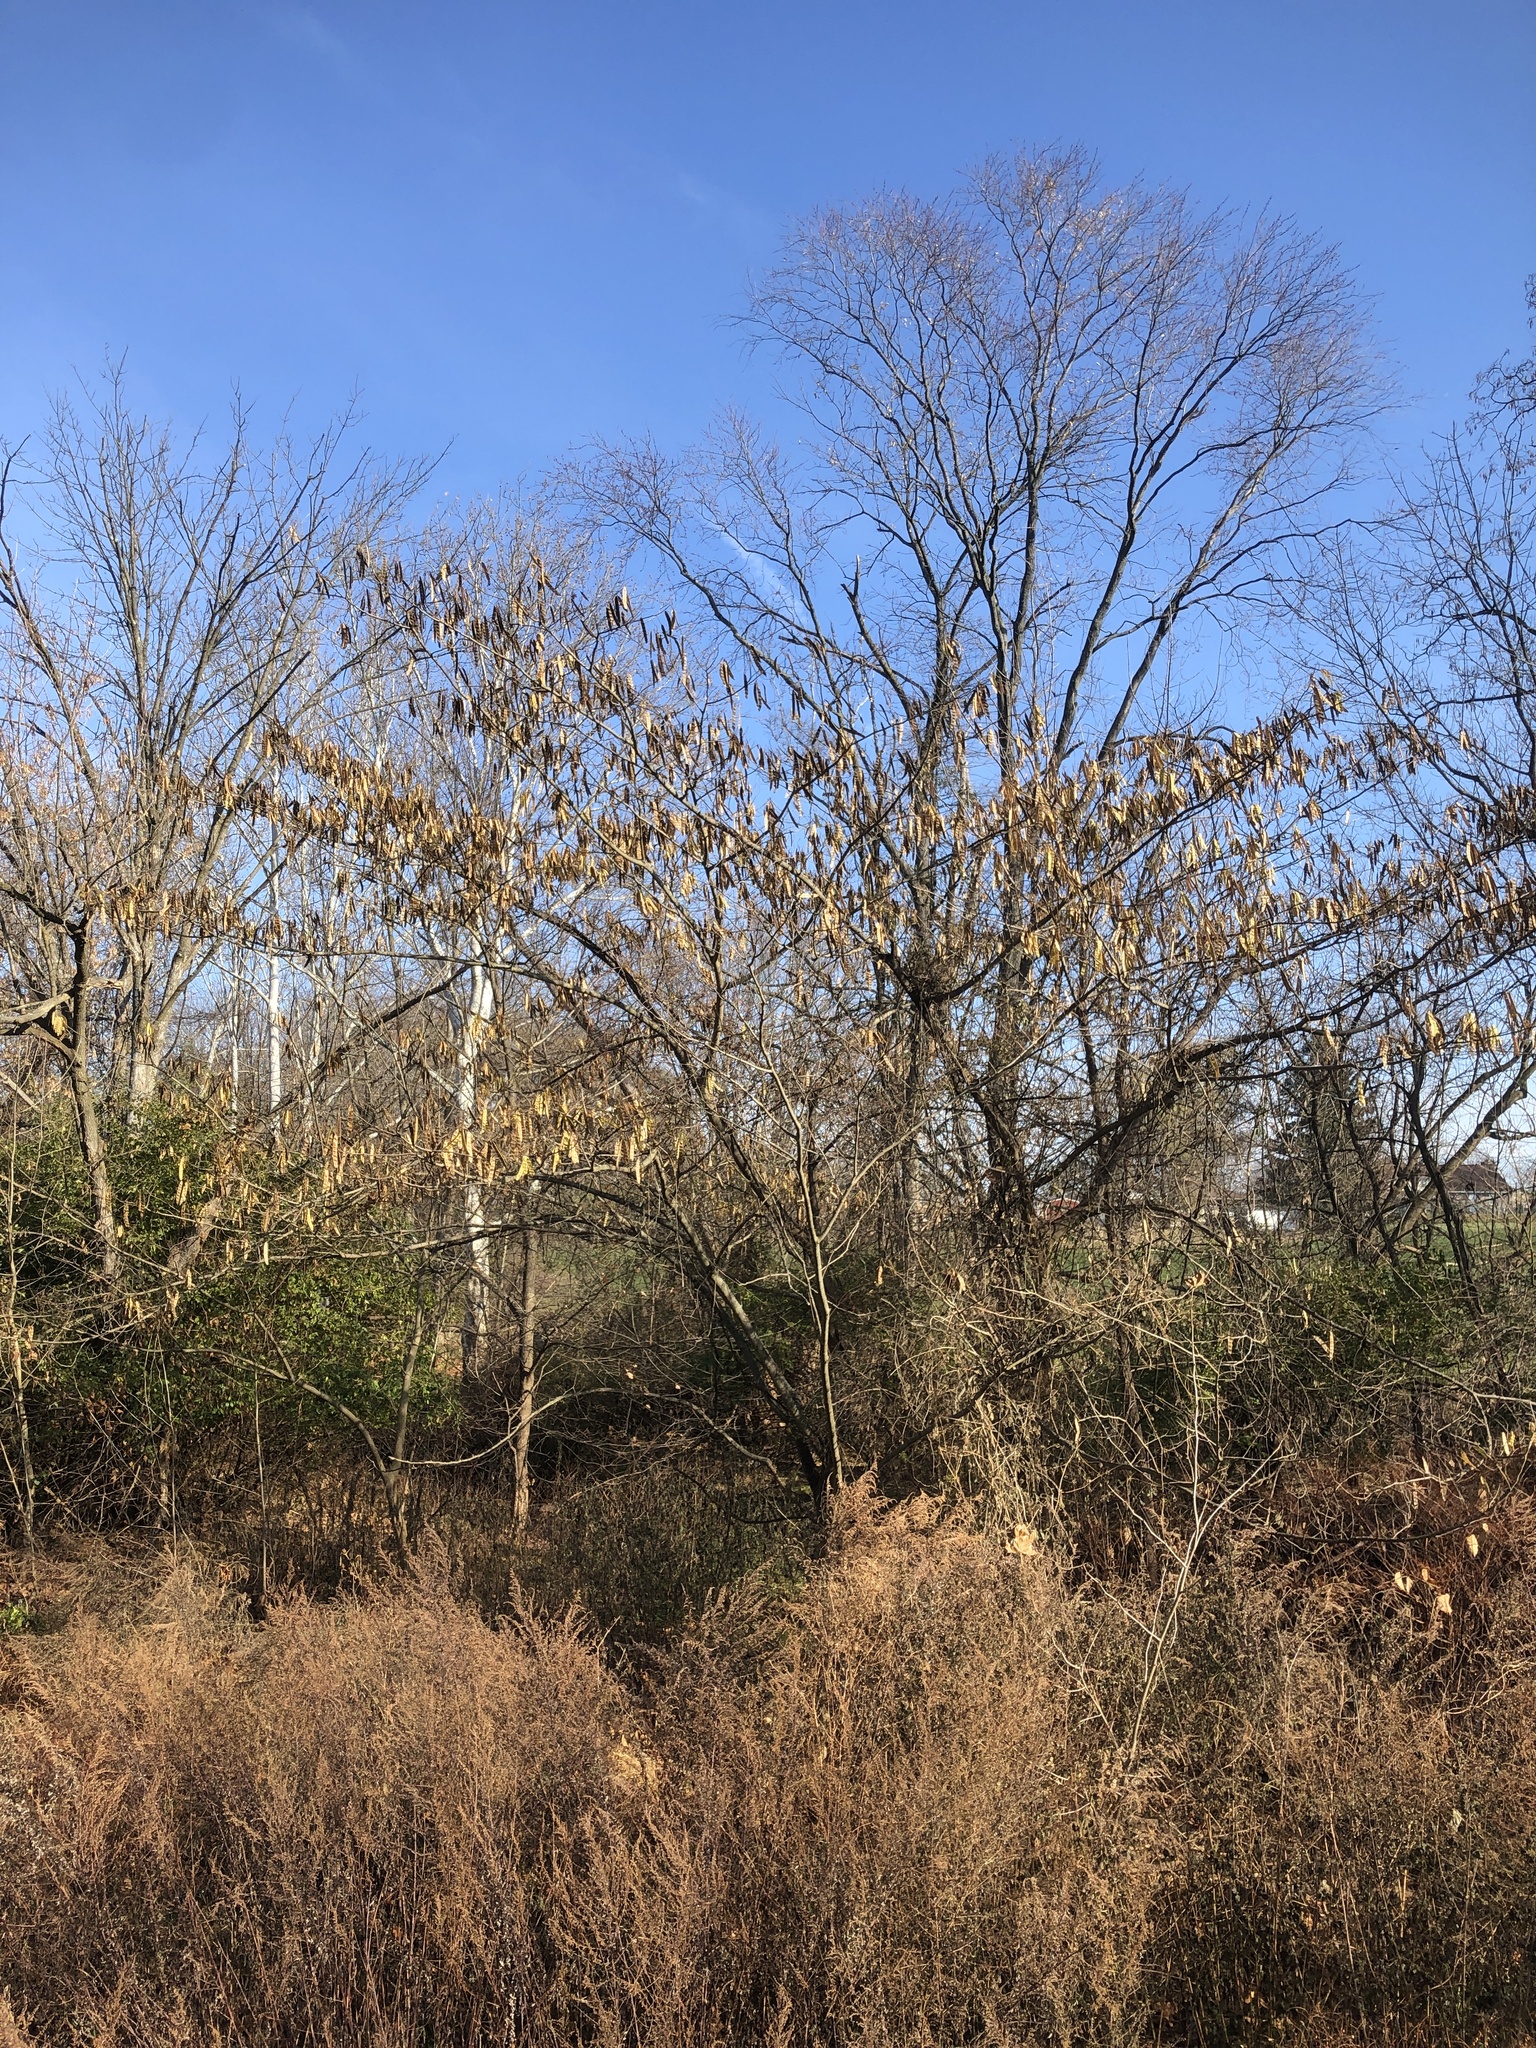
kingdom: Plantae
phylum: Tracheophyta
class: Magnoliopsida
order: Fabales
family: Fabaceae
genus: Albizia
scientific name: Albizia julibrissin
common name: Silktree
